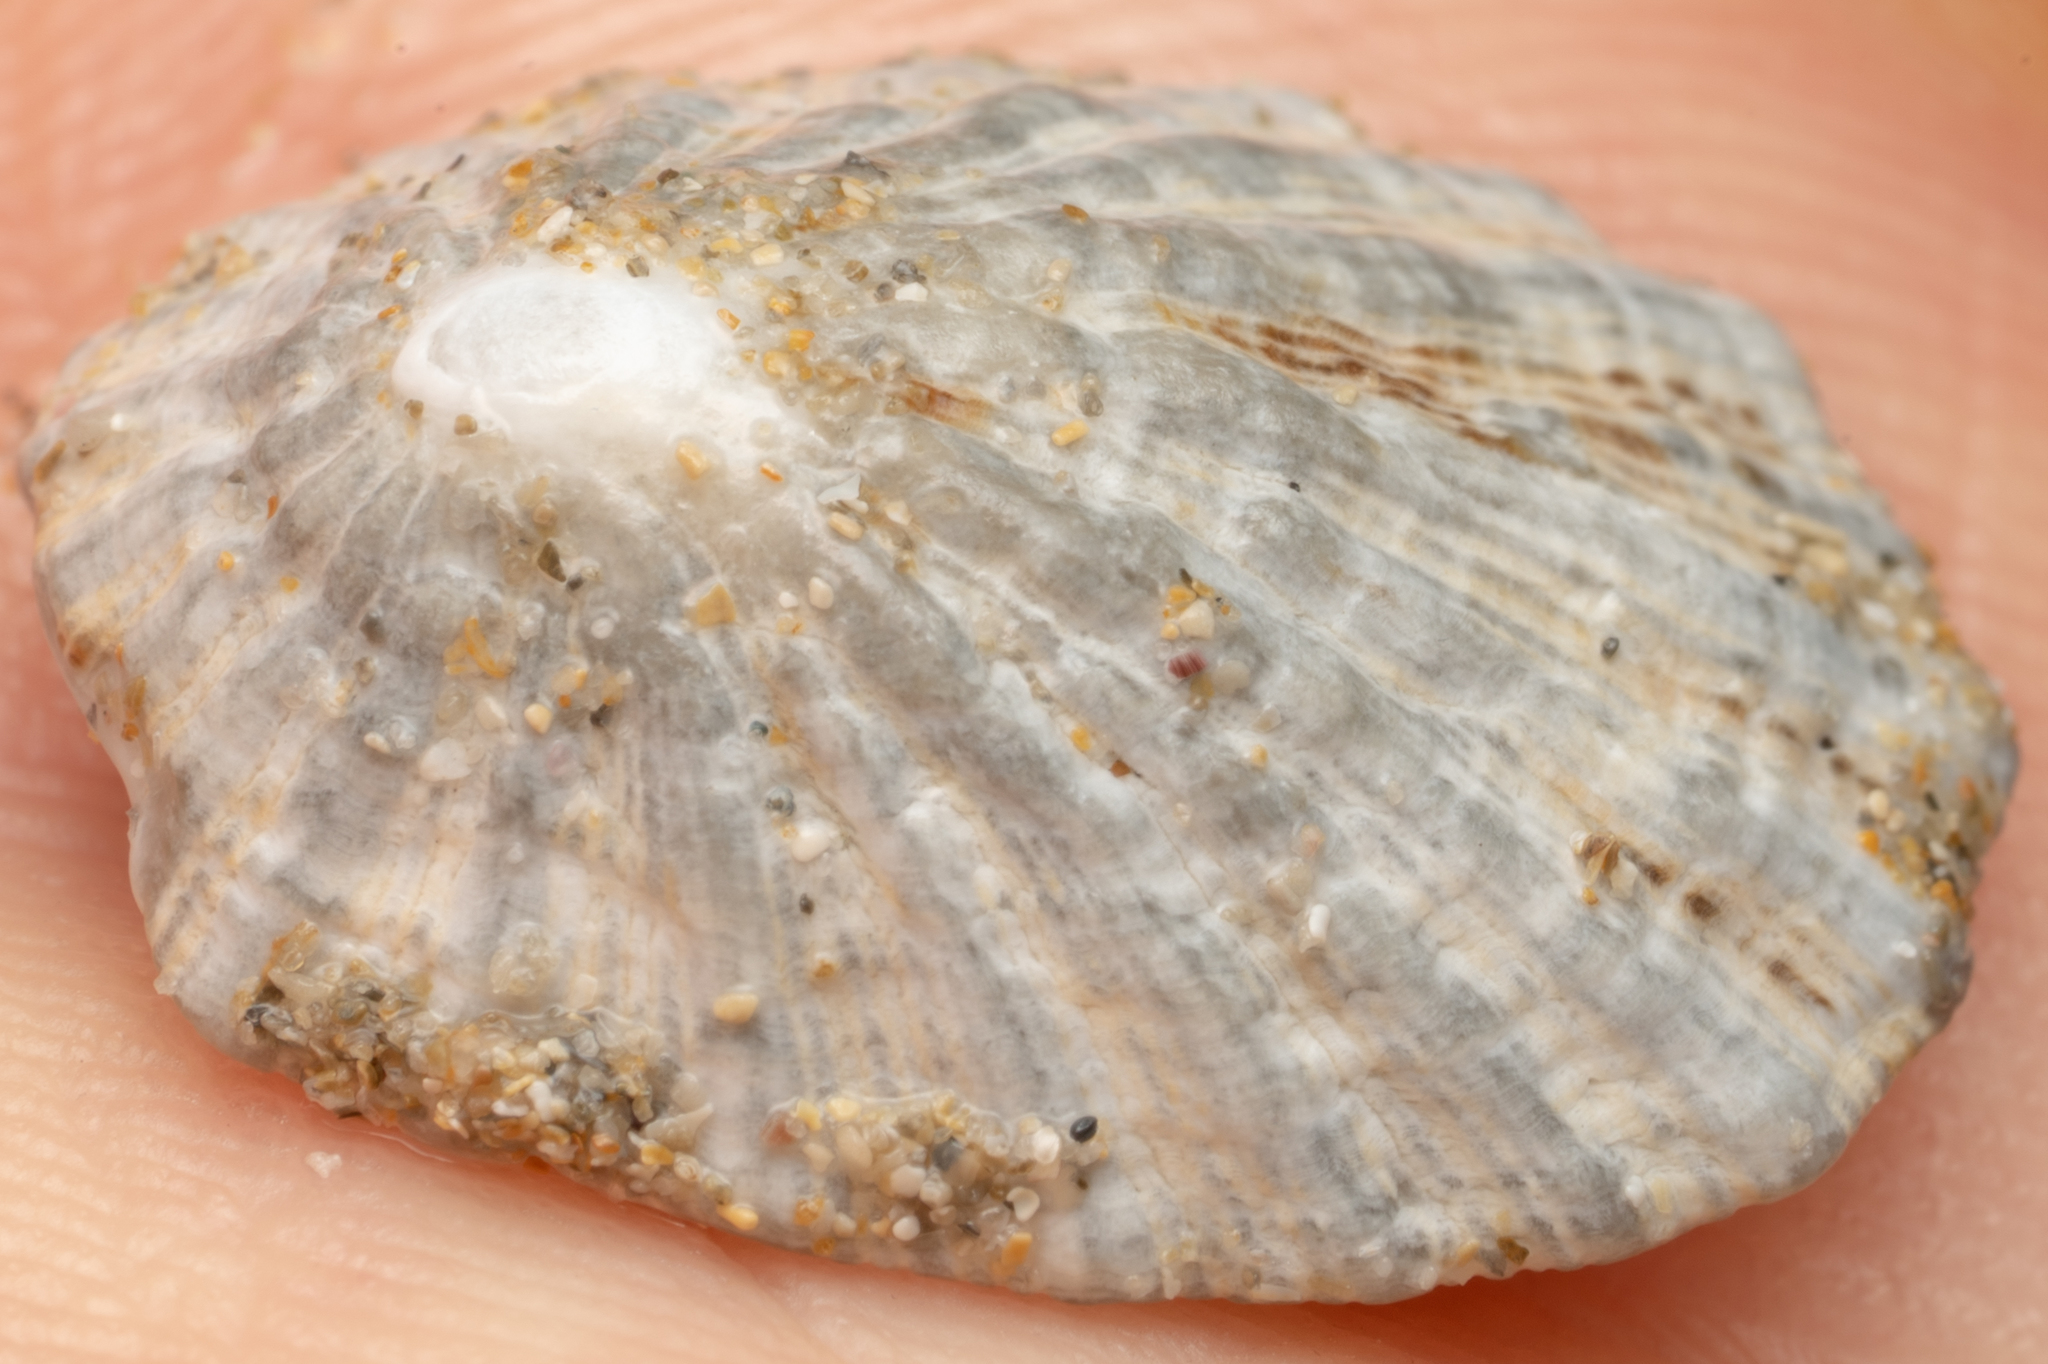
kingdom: Animalia
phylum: Mollusca
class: Gastropoda
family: Patellidae
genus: Scutellastra
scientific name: Scutellastra peronii
